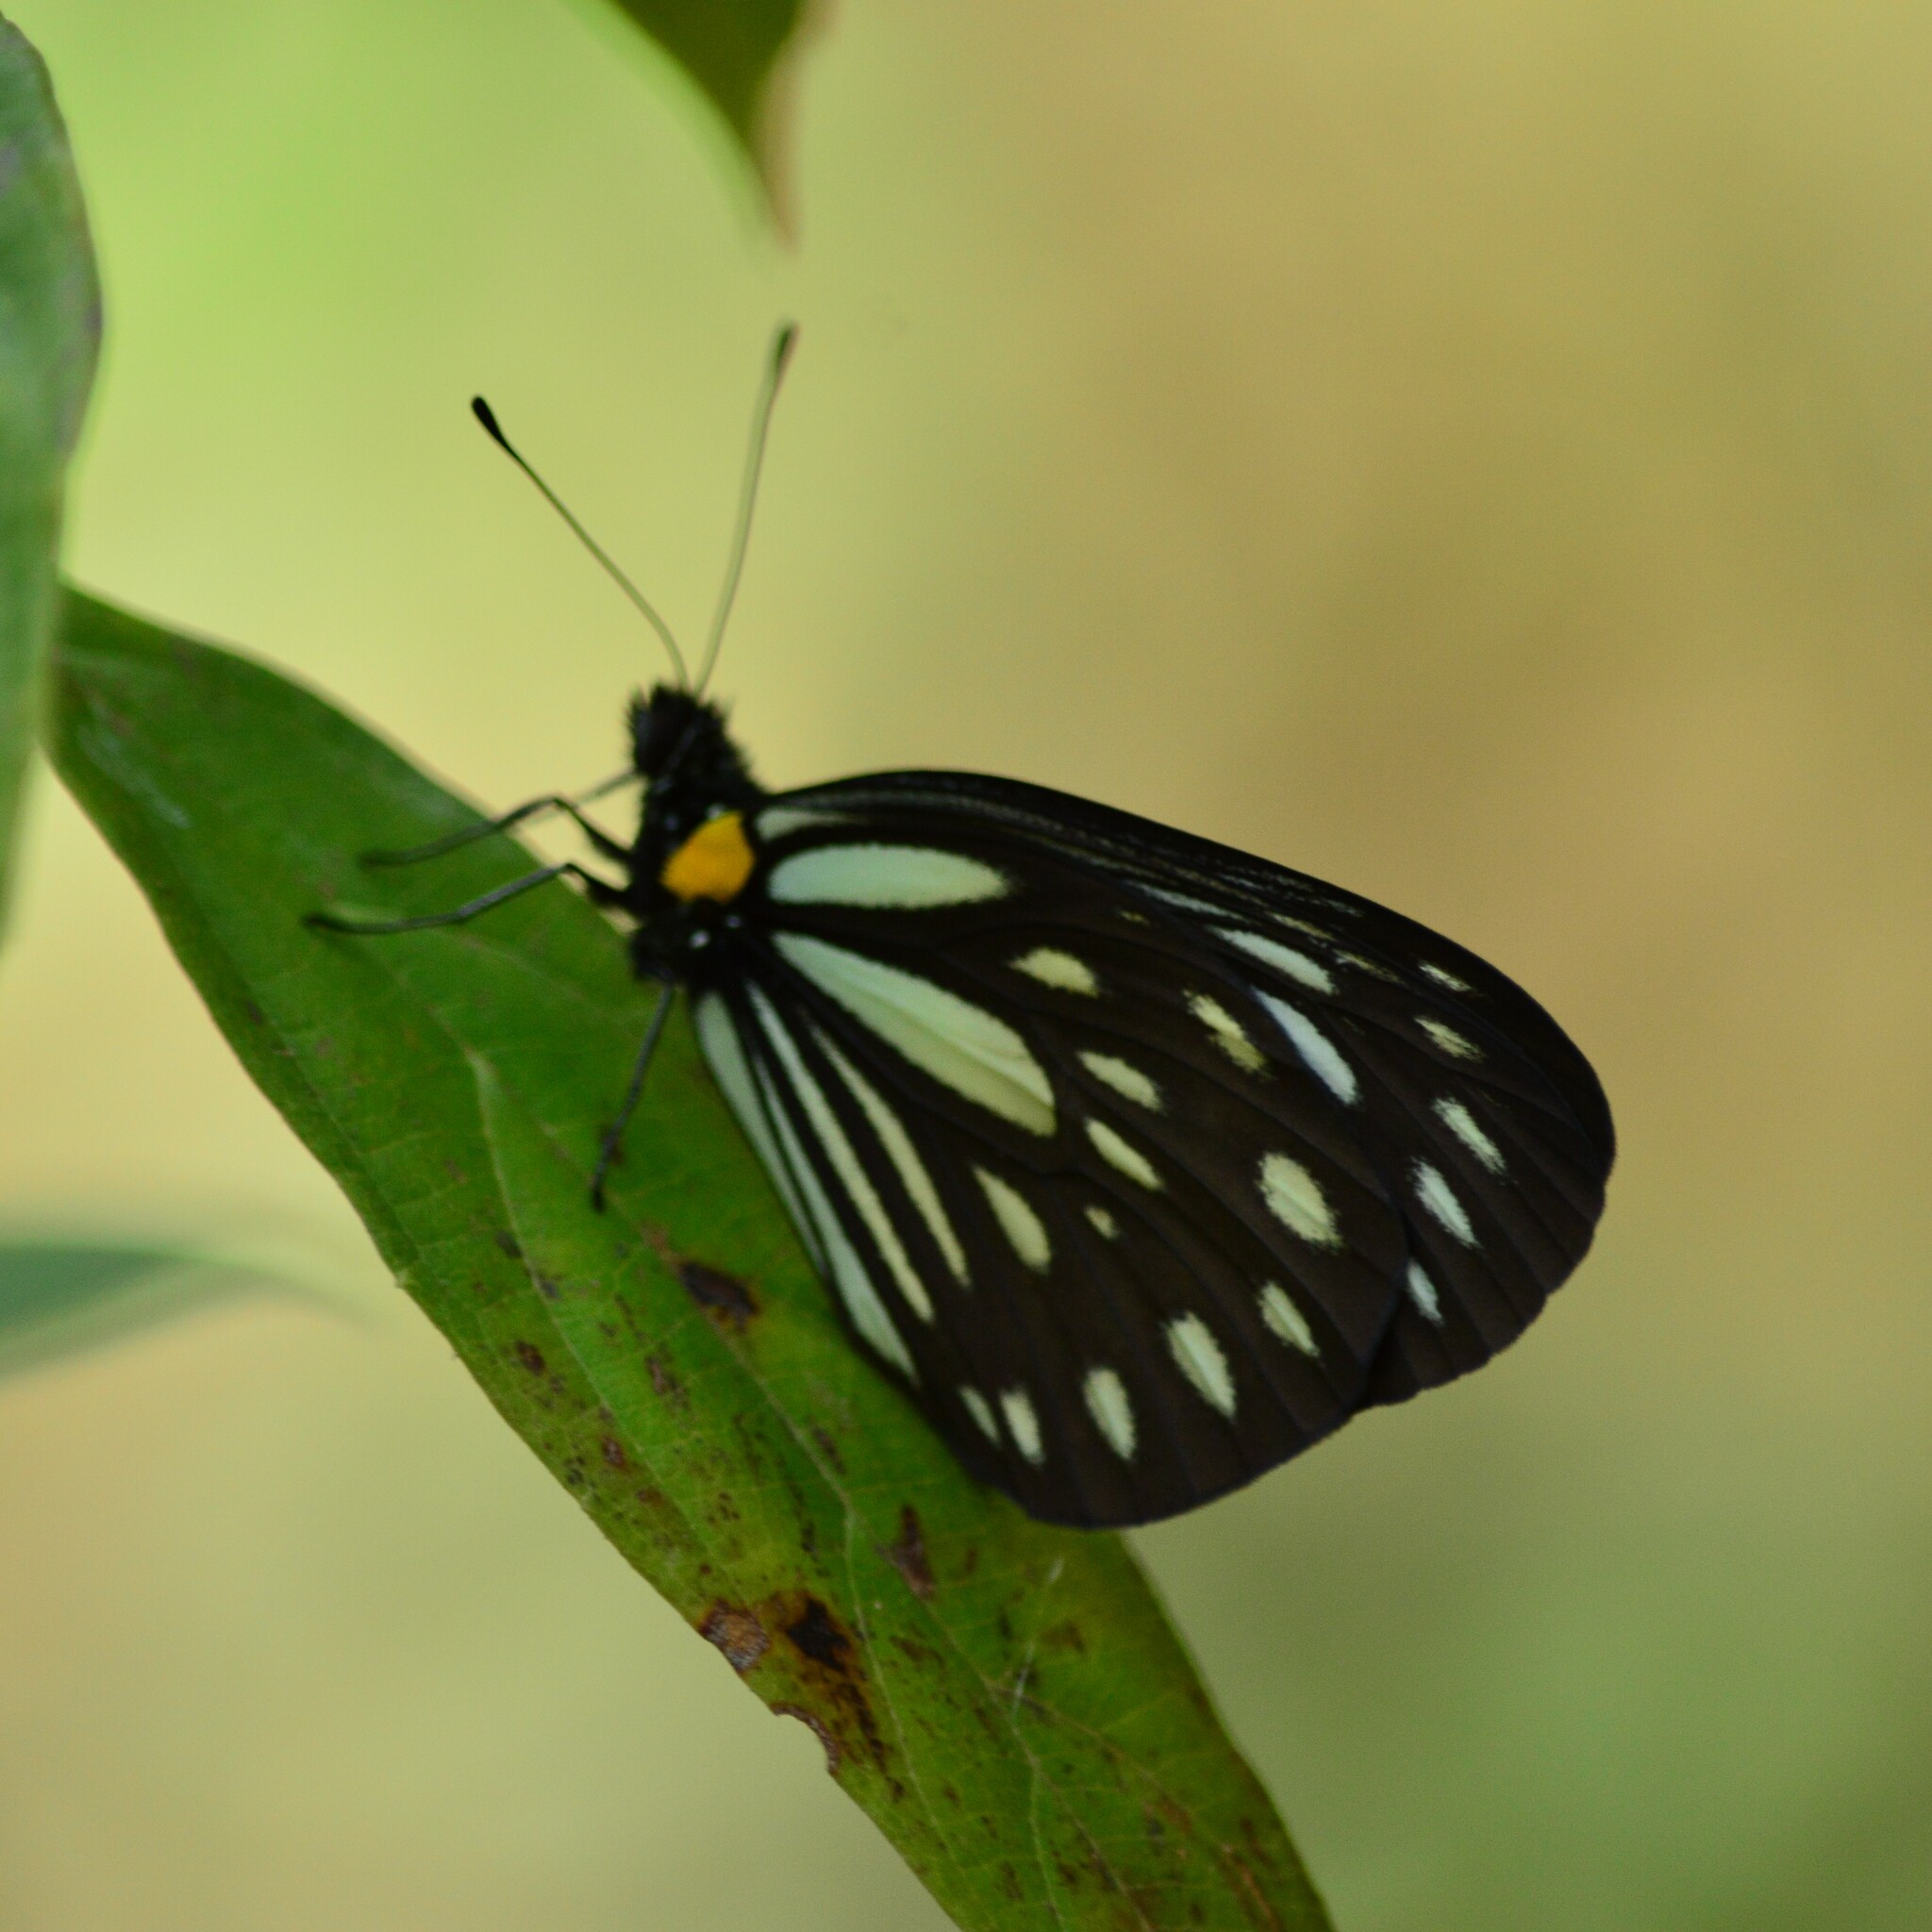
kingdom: Animalia
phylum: Arthropoda
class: Insecta
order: Lepidoptera
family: Pieridae
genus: Aporia
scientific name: Aporia agathon
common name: Great blackvein
